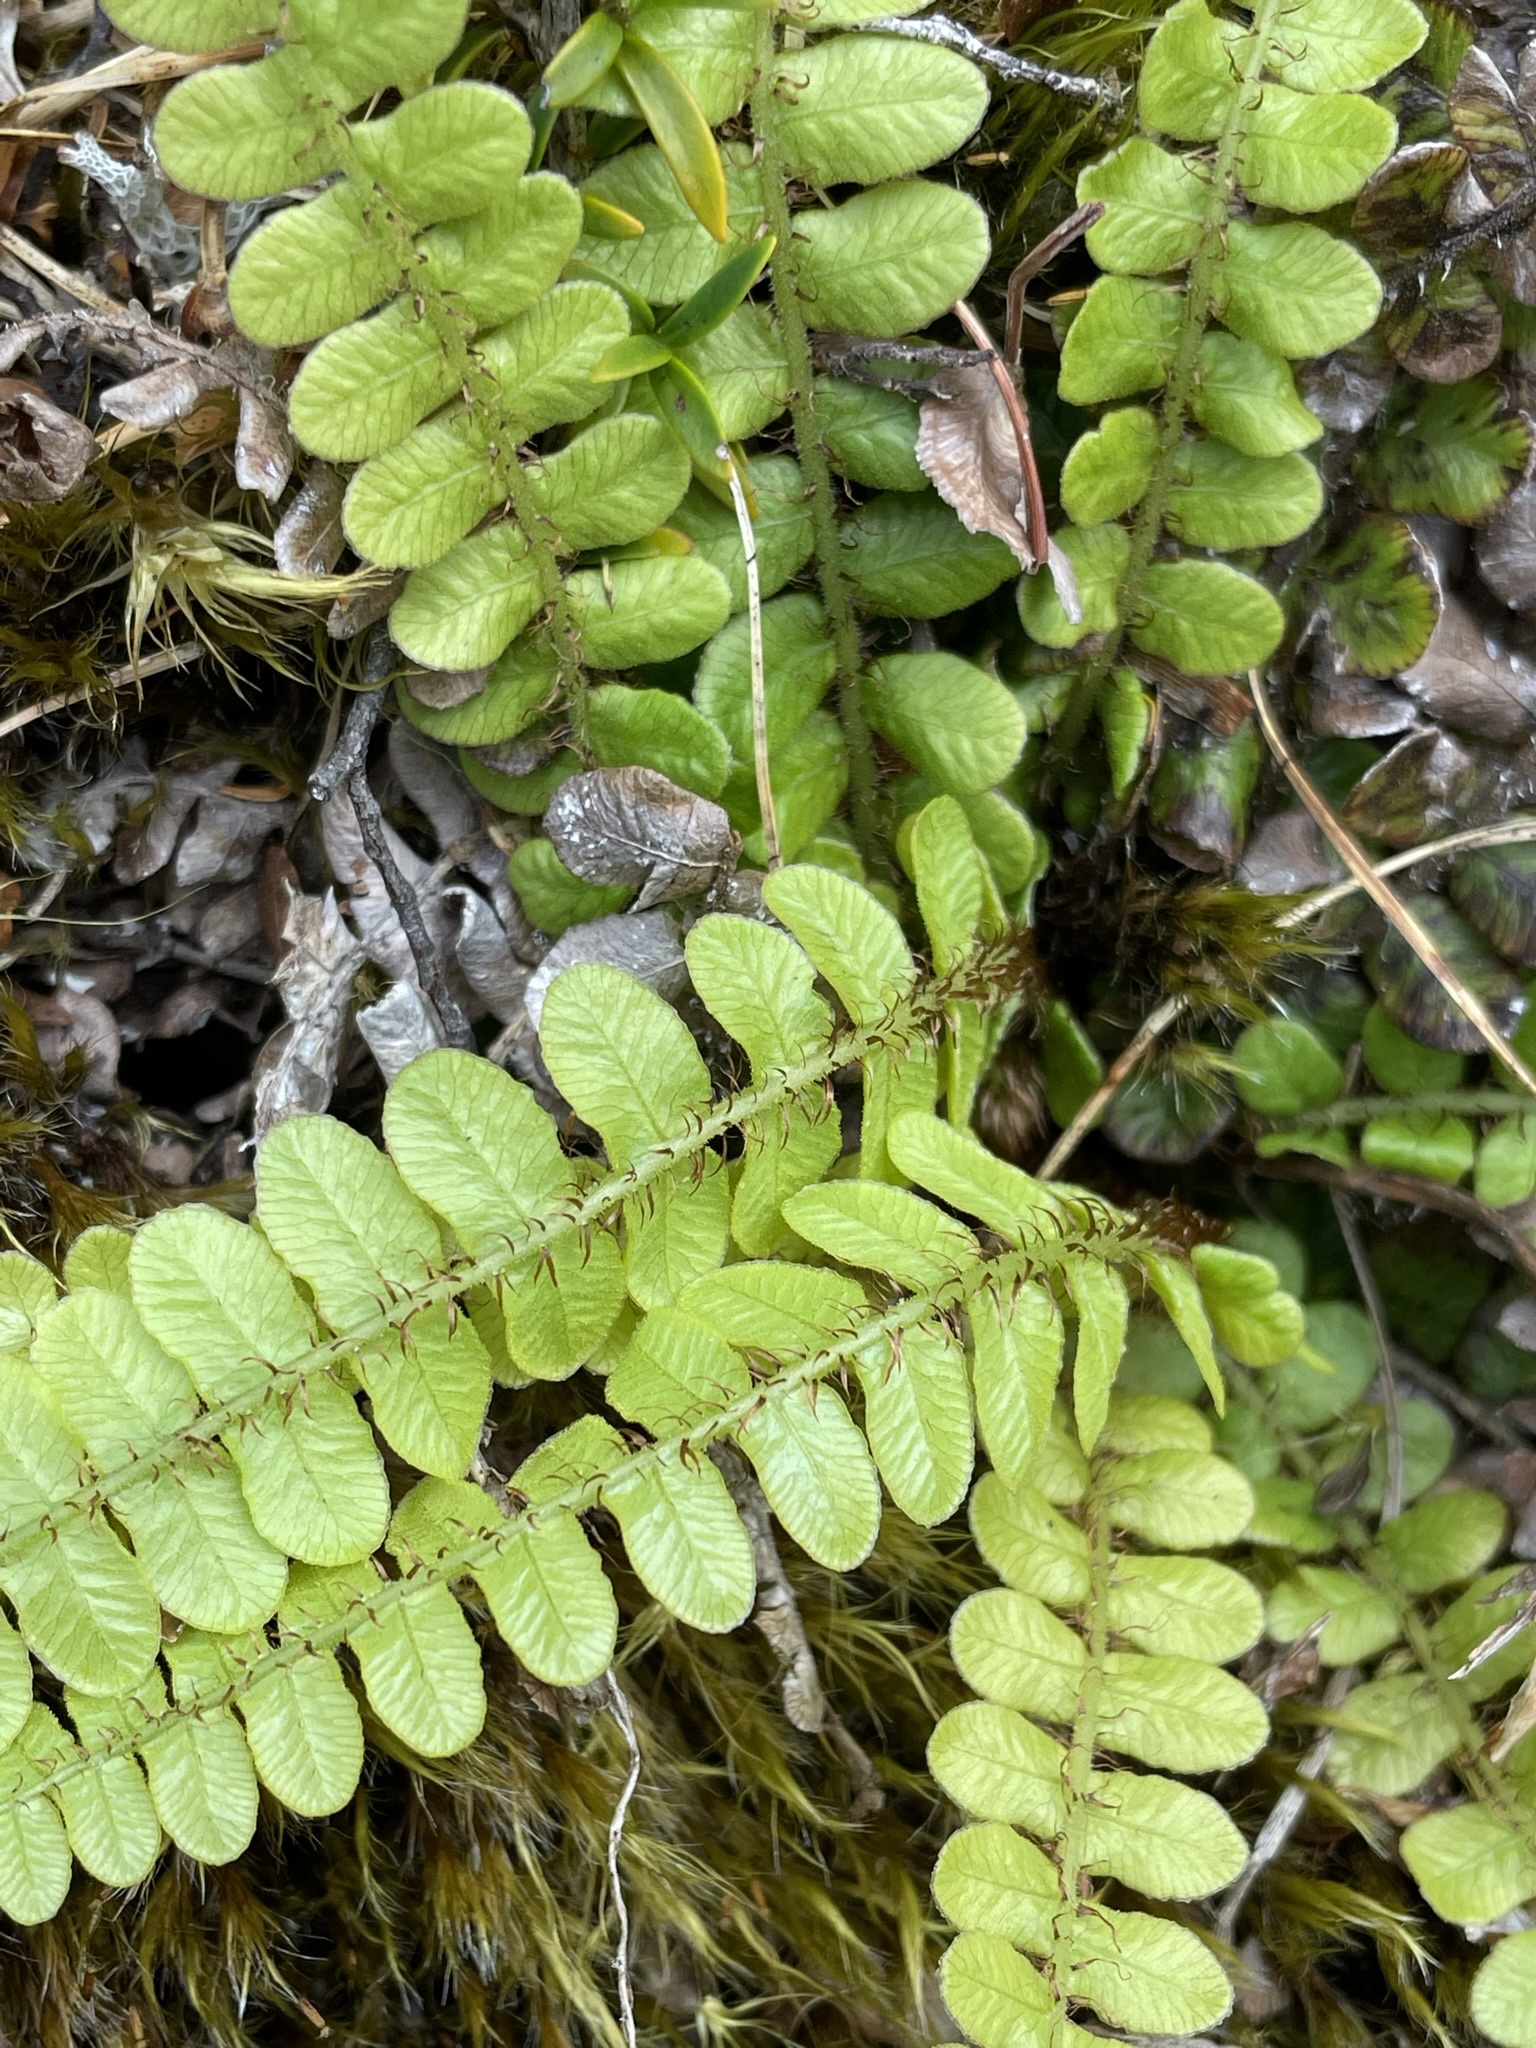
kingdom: Plantae
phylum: Tracheophyta
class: Polypodiopsida
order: Polypodiales
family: Blechnaceae
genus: Cranfillia
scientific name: Cranfillia fluviatilis
